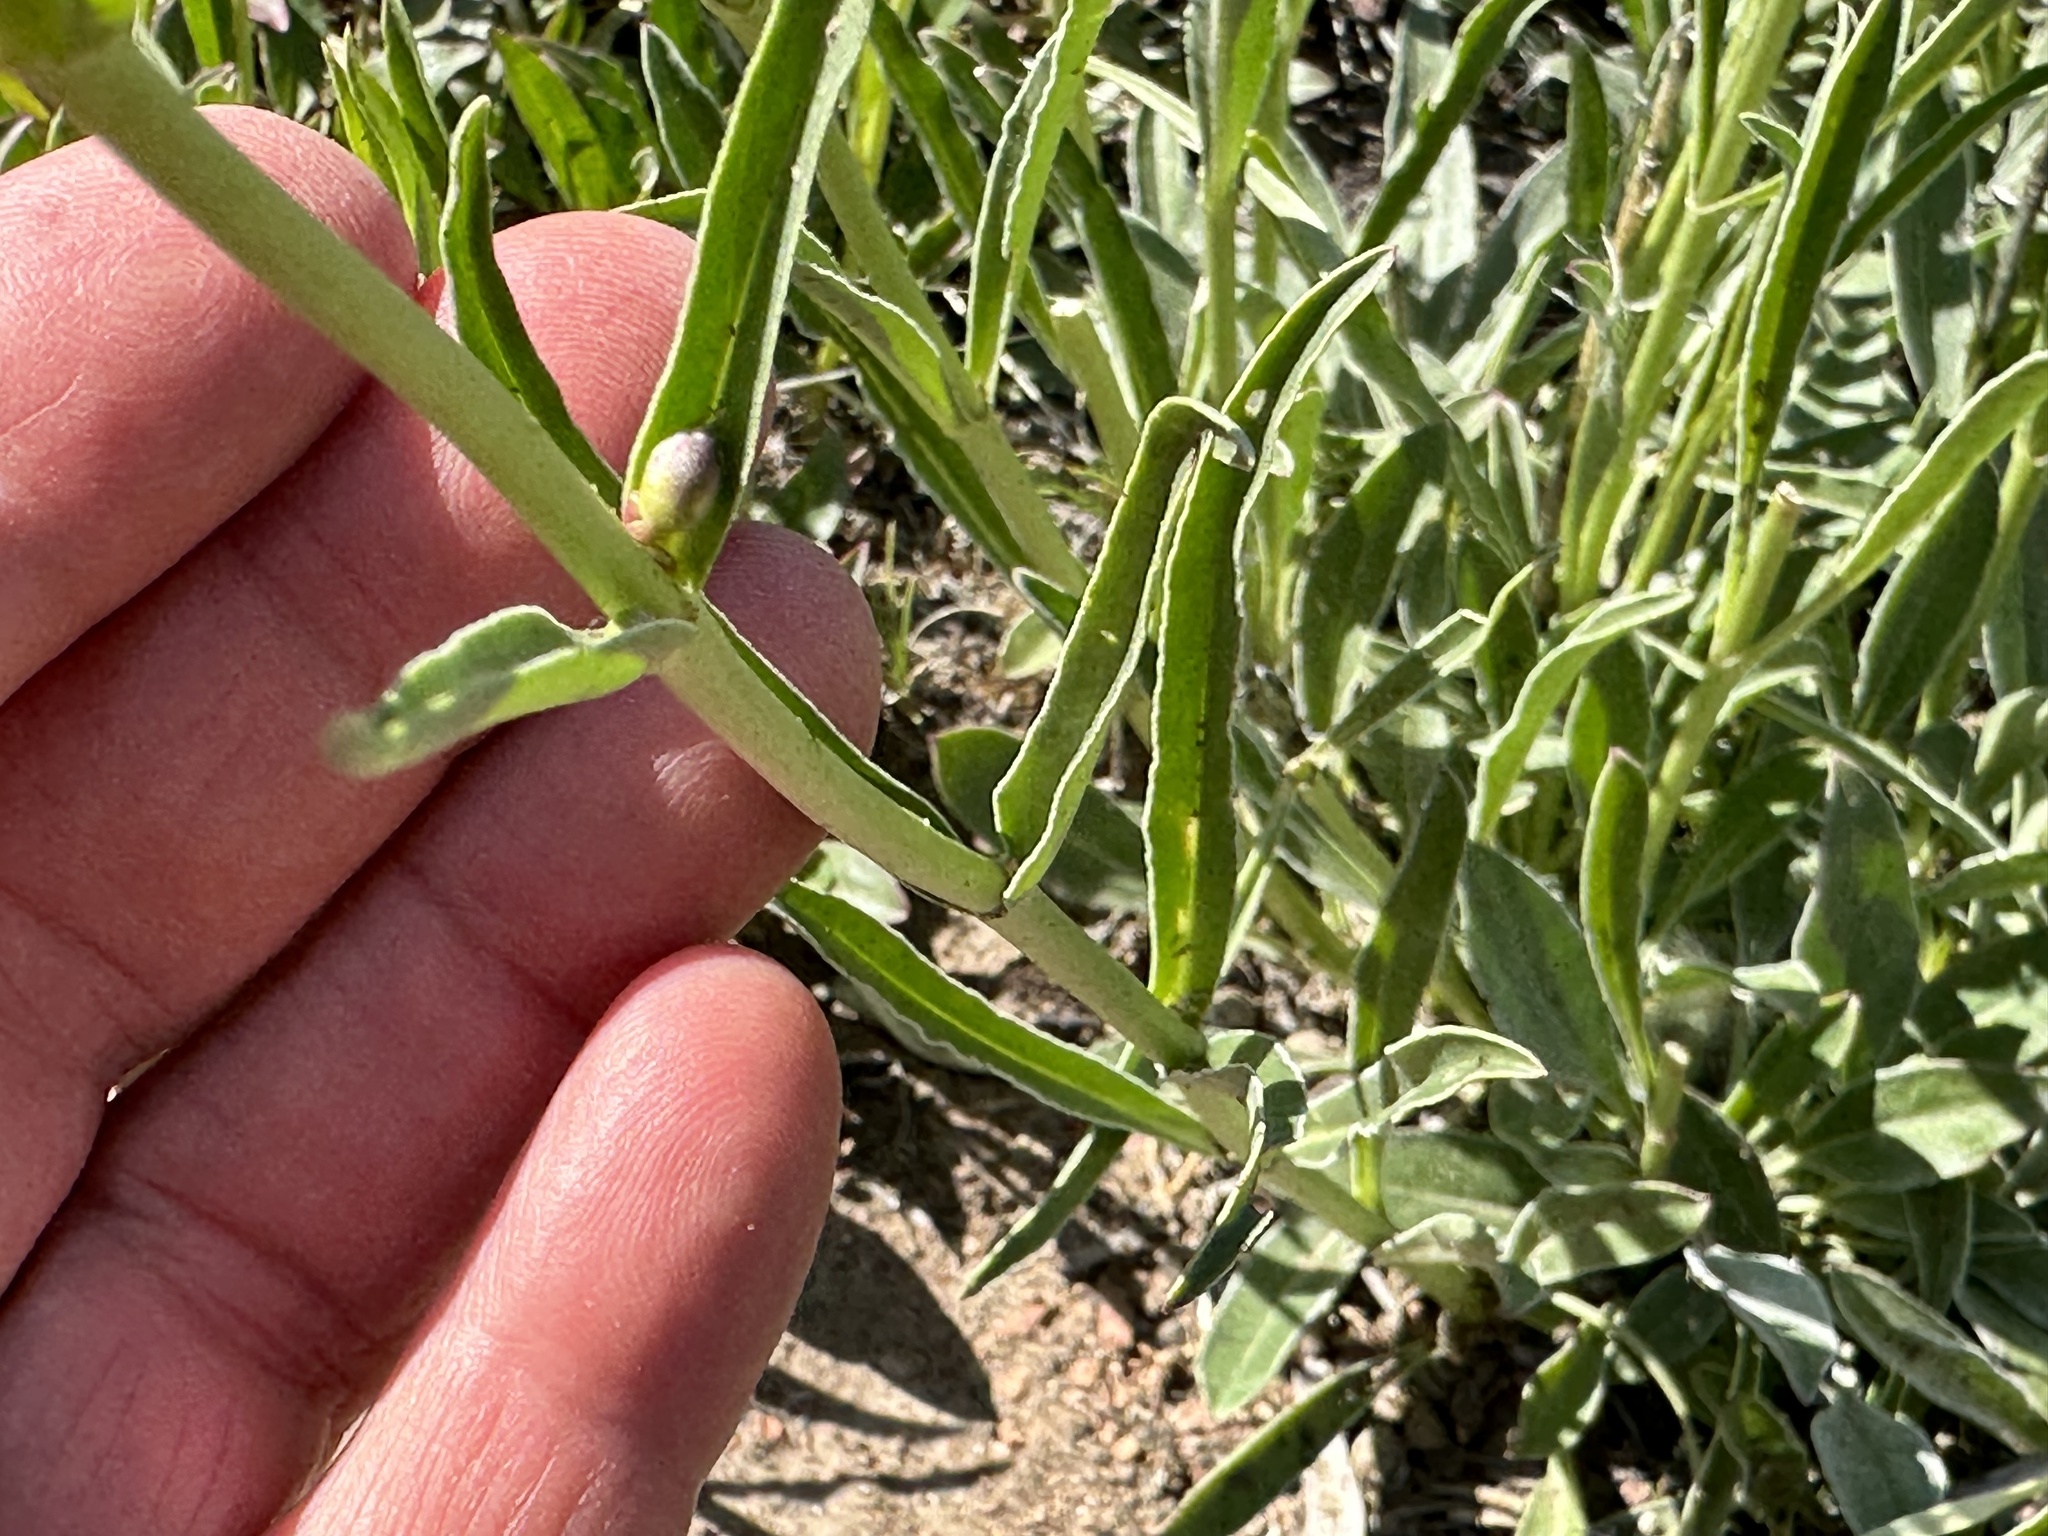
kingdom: Plantae
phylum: Tracheophyta
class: Magnoliopsida
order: Lamiales
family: Plantaginaceae
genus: Penstemon
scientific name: Penstemon humilis
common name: Low penstemon
